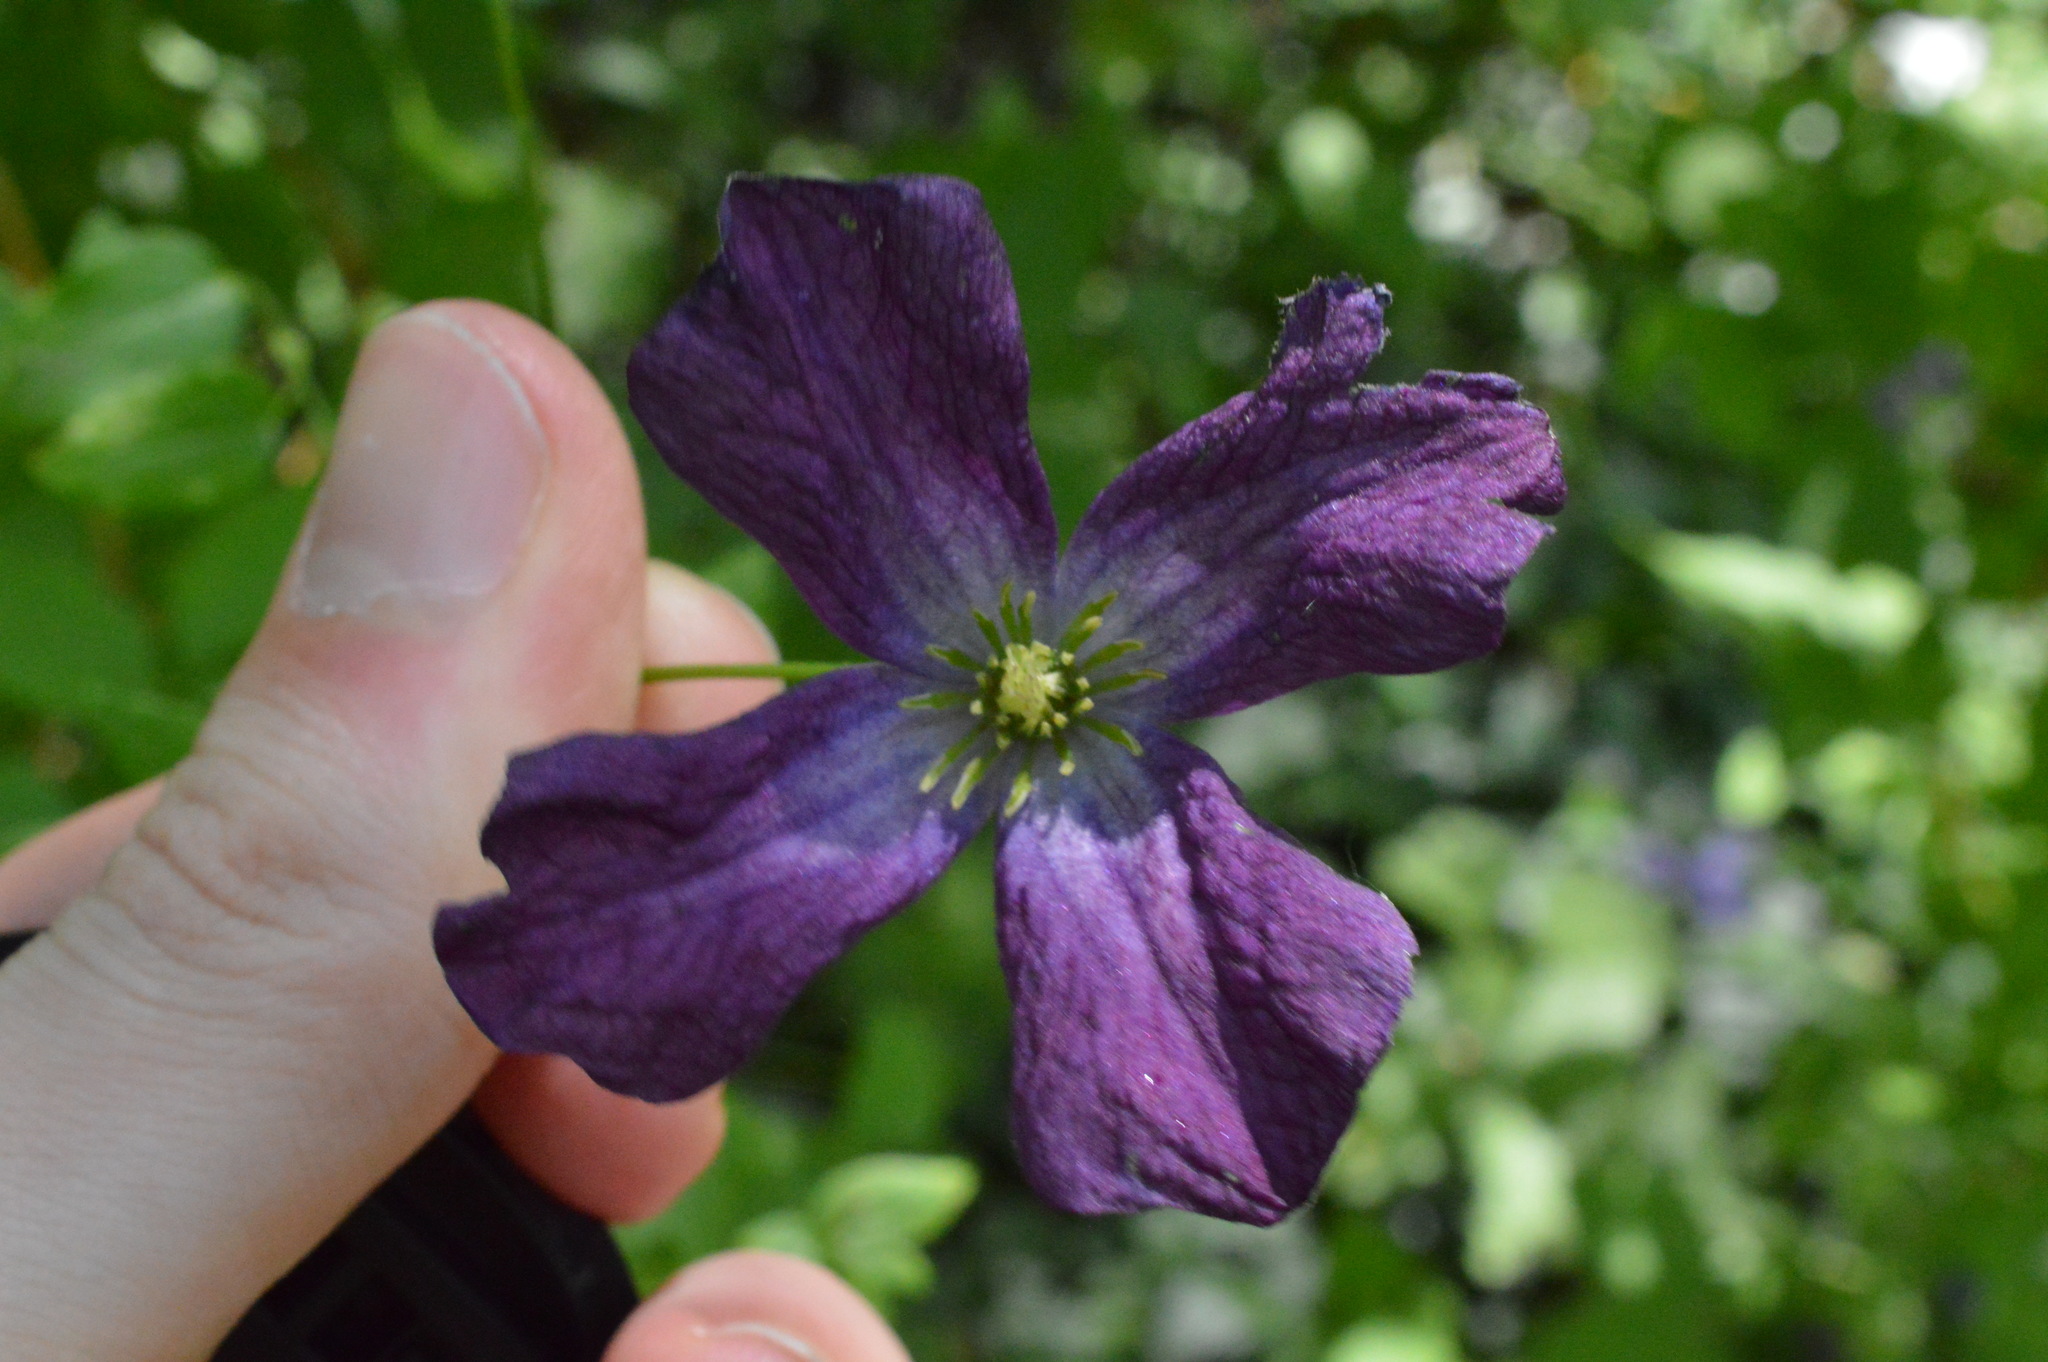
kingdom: Plantae
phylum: Tracheophyta
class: Magnoliopsida
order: Ranunculales
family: Ranunculaceae
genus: Clematis
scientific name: Clematis viticella
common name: Purple clematis
